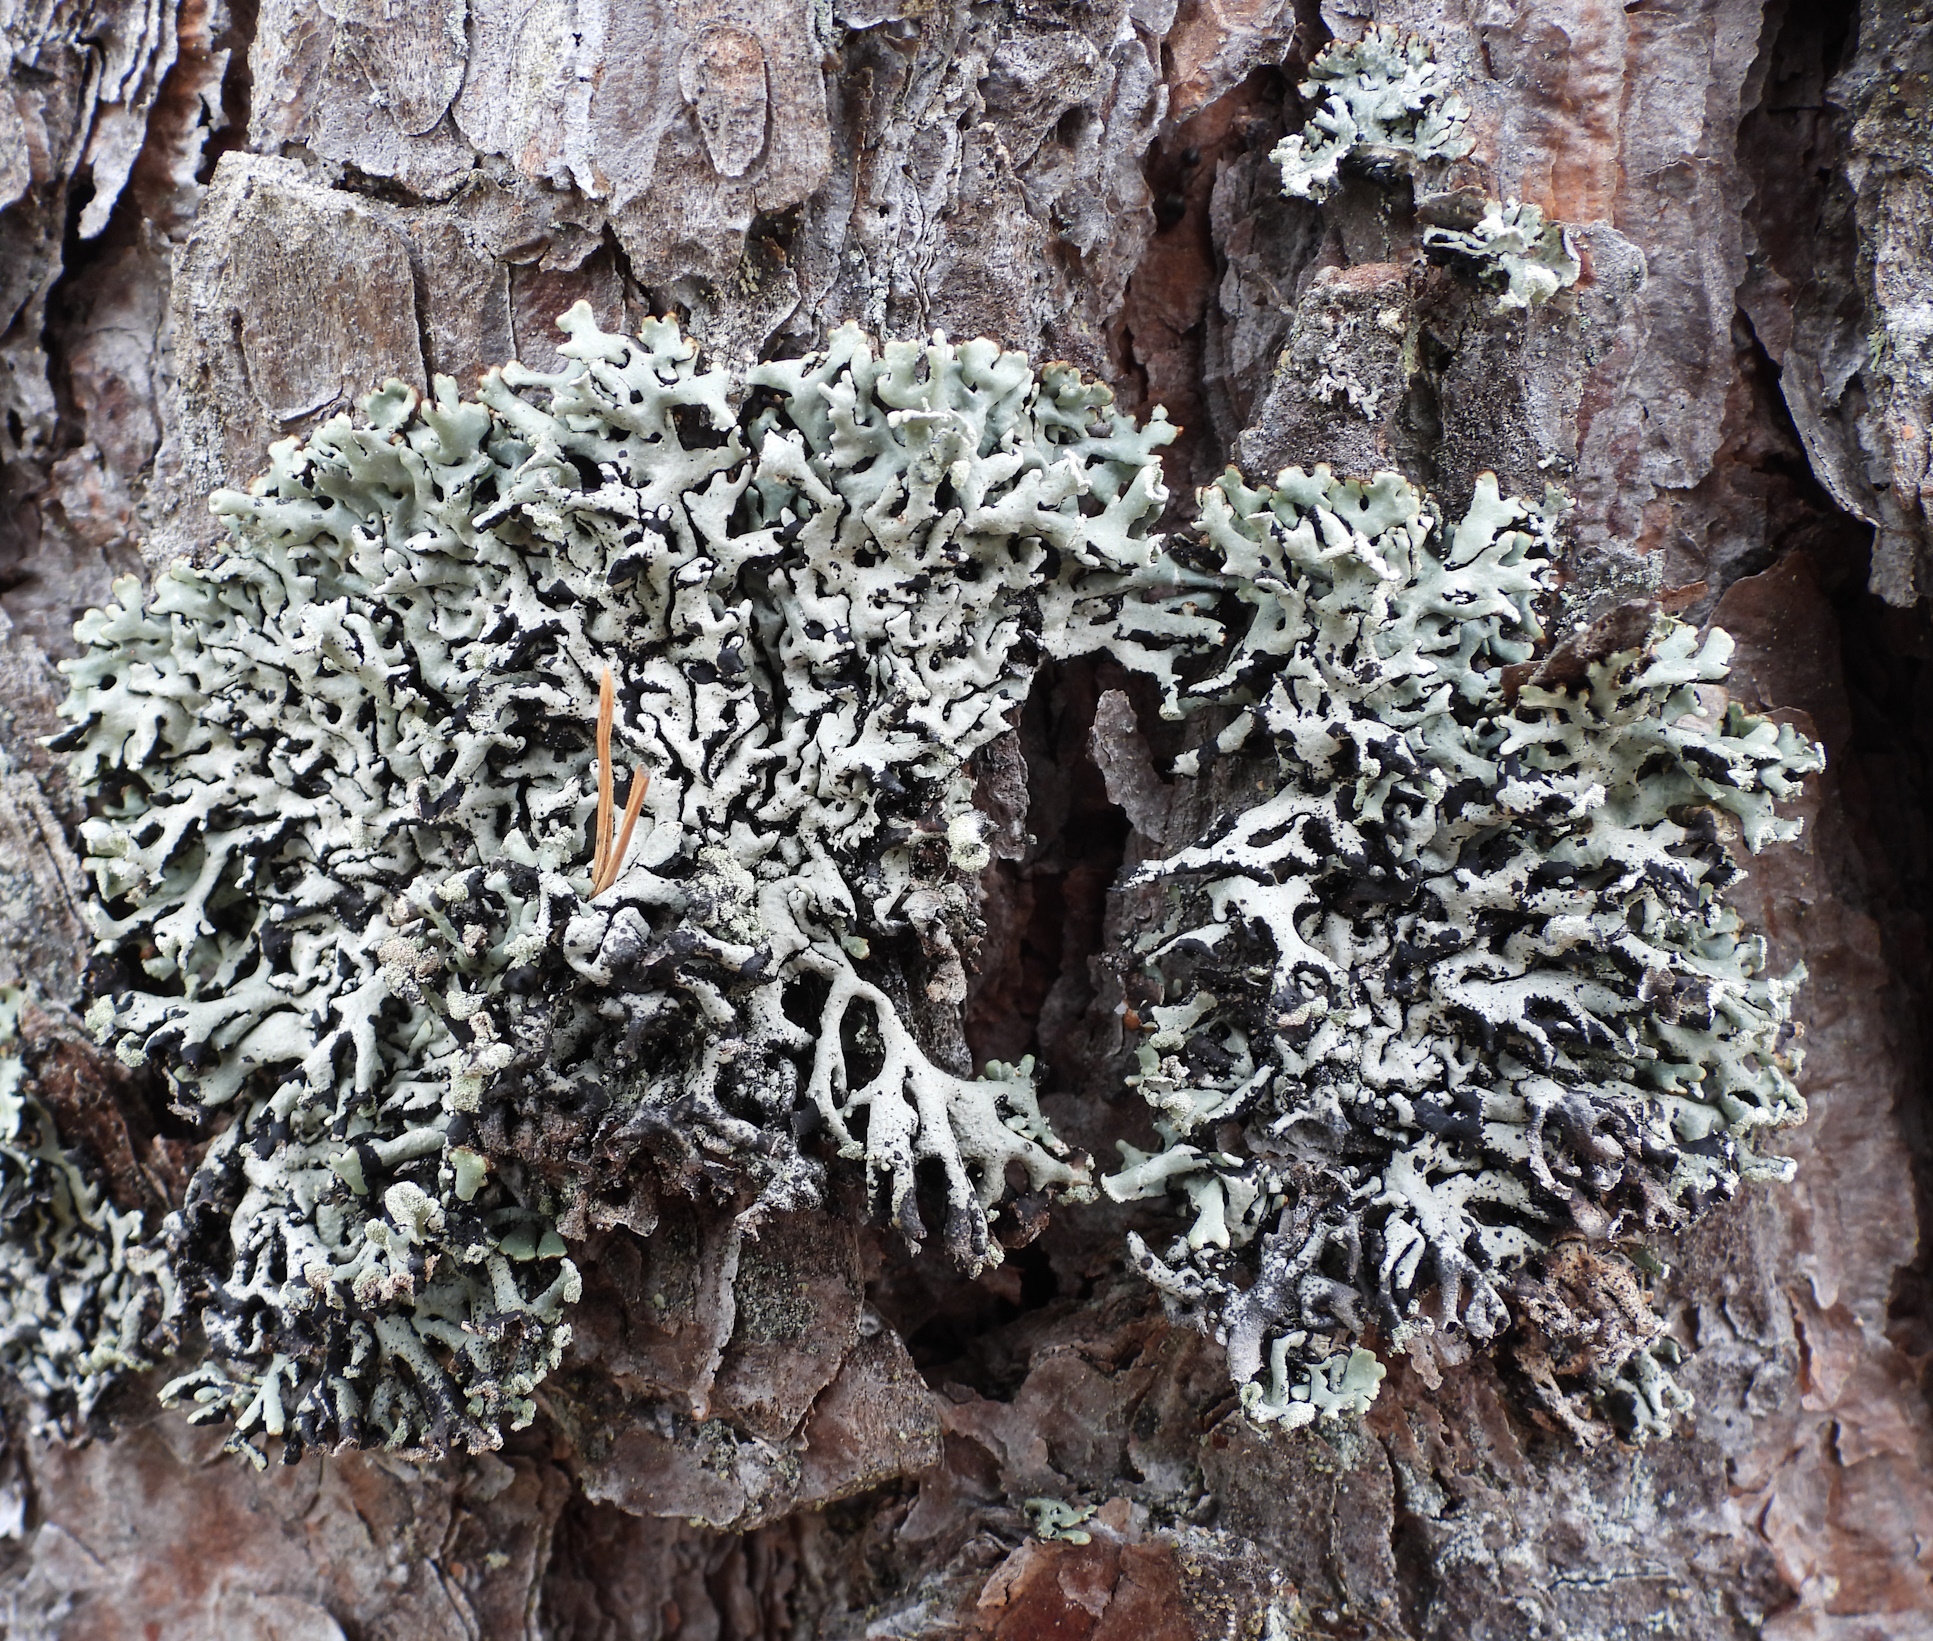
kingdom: Fungi
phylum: Ascomycota
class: Lecanoromycetes
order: Lecanorales
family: Parmeliaceae
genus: Hypogymnia
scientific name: Hypogymnia physodes
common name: Dark crottle
